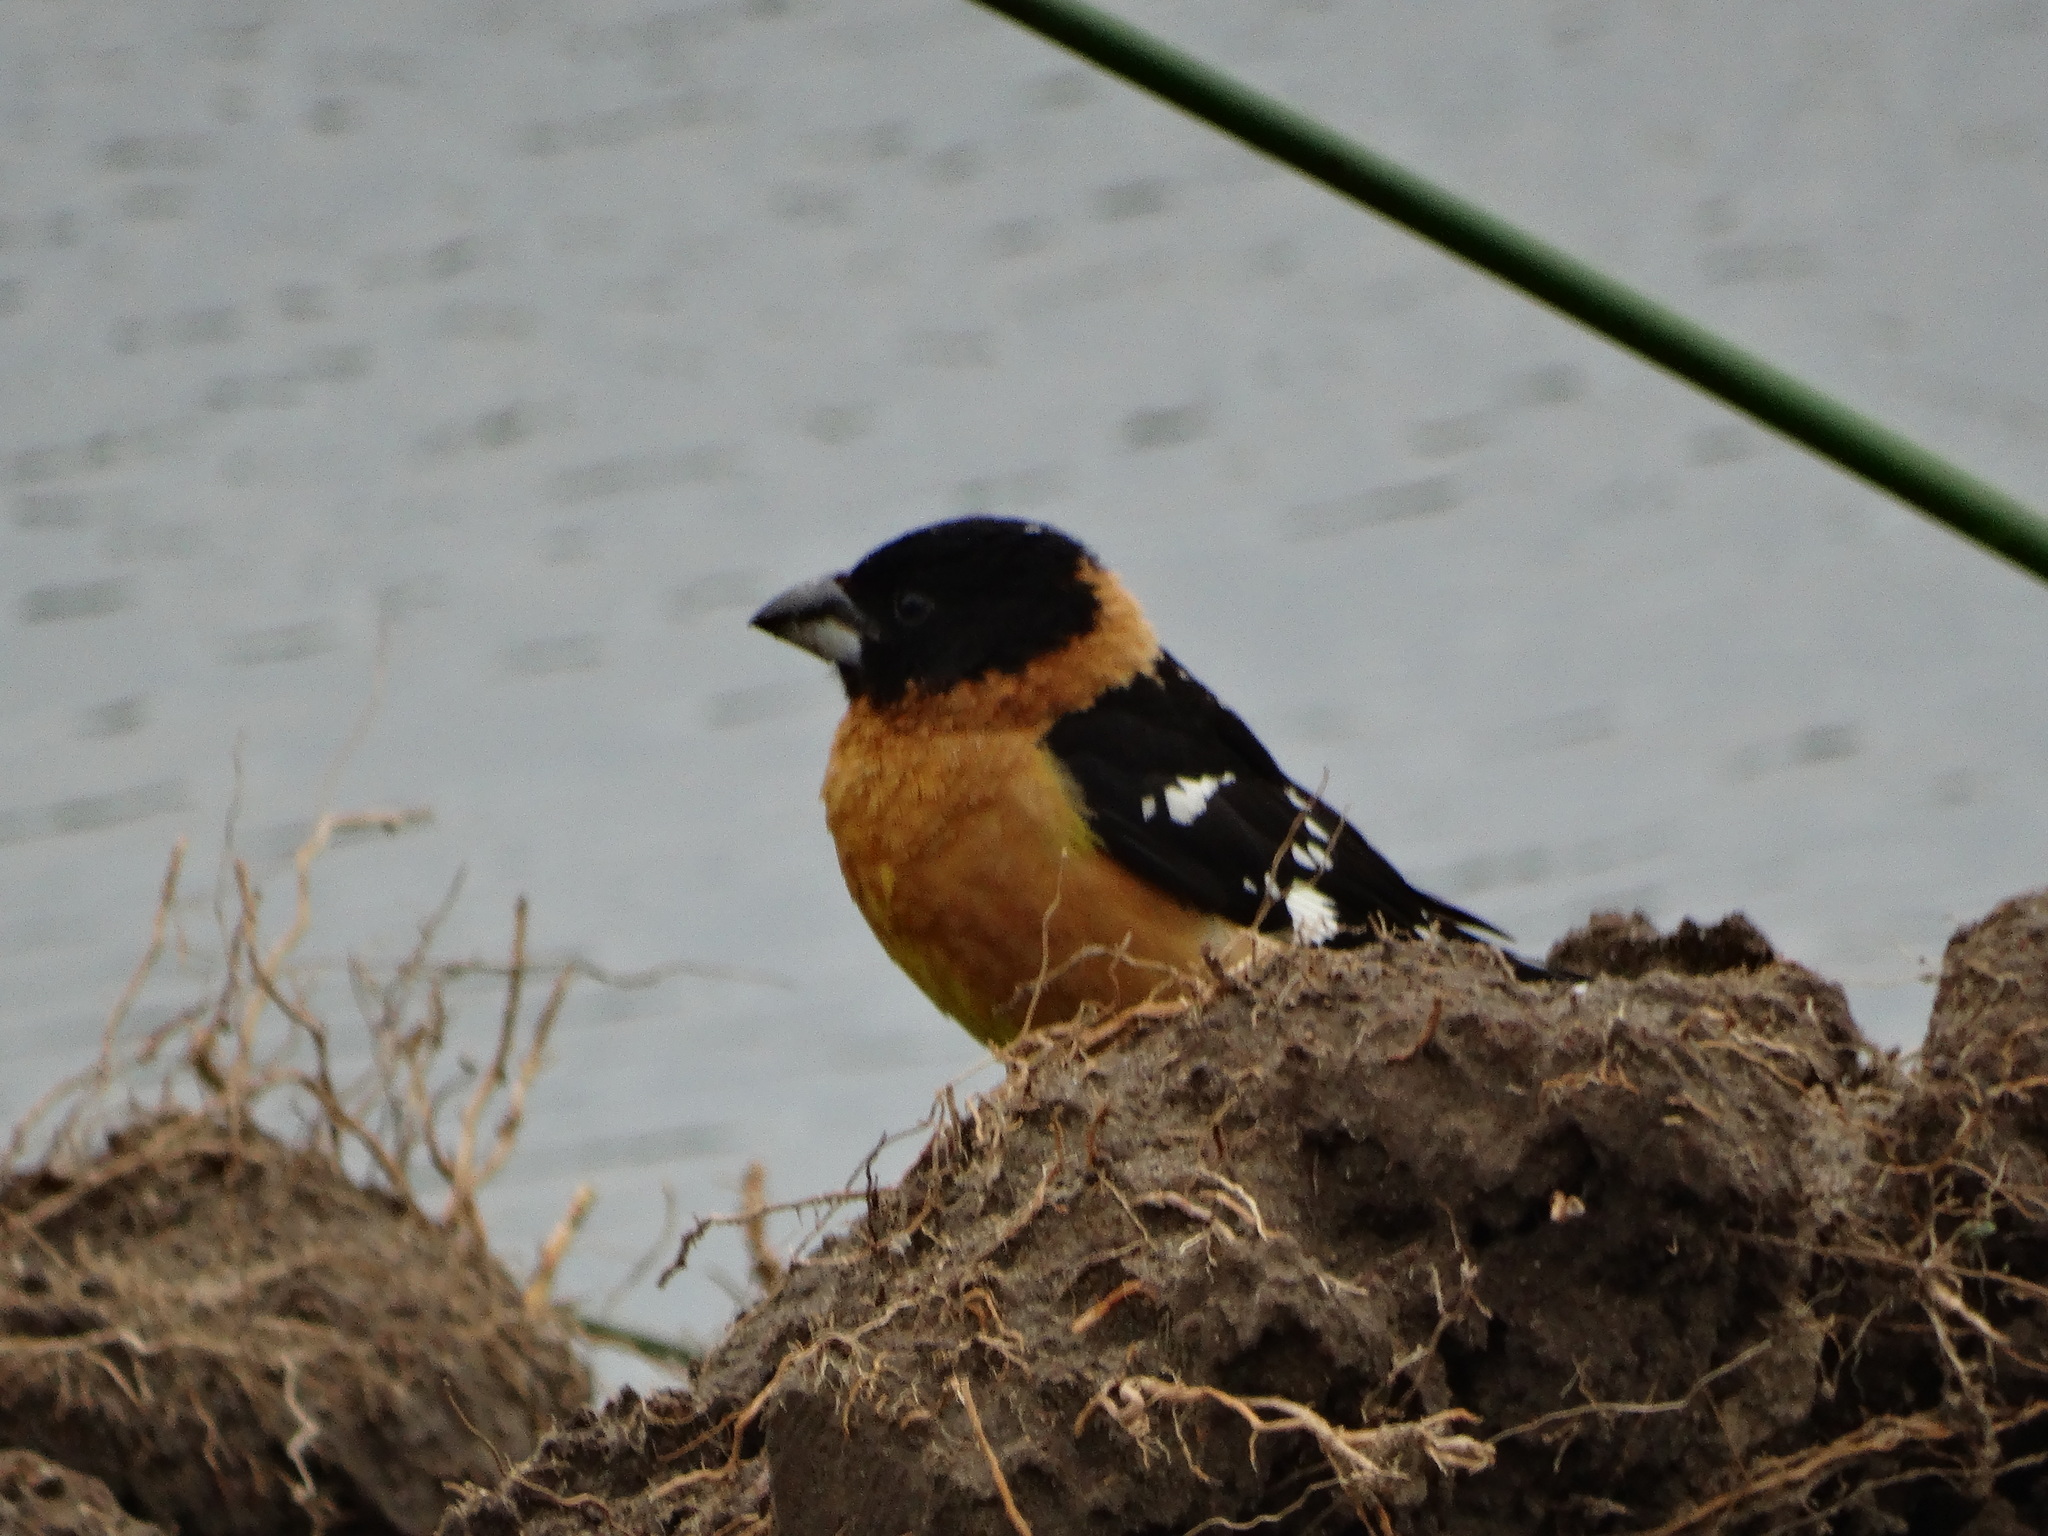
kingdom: Animalia
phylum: Chordata
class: Aves
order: Passeriformes
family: Cardinalidae
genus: Pheucticus
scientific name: Pheucticus melanocephalus
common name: Black-headed grosbeak
